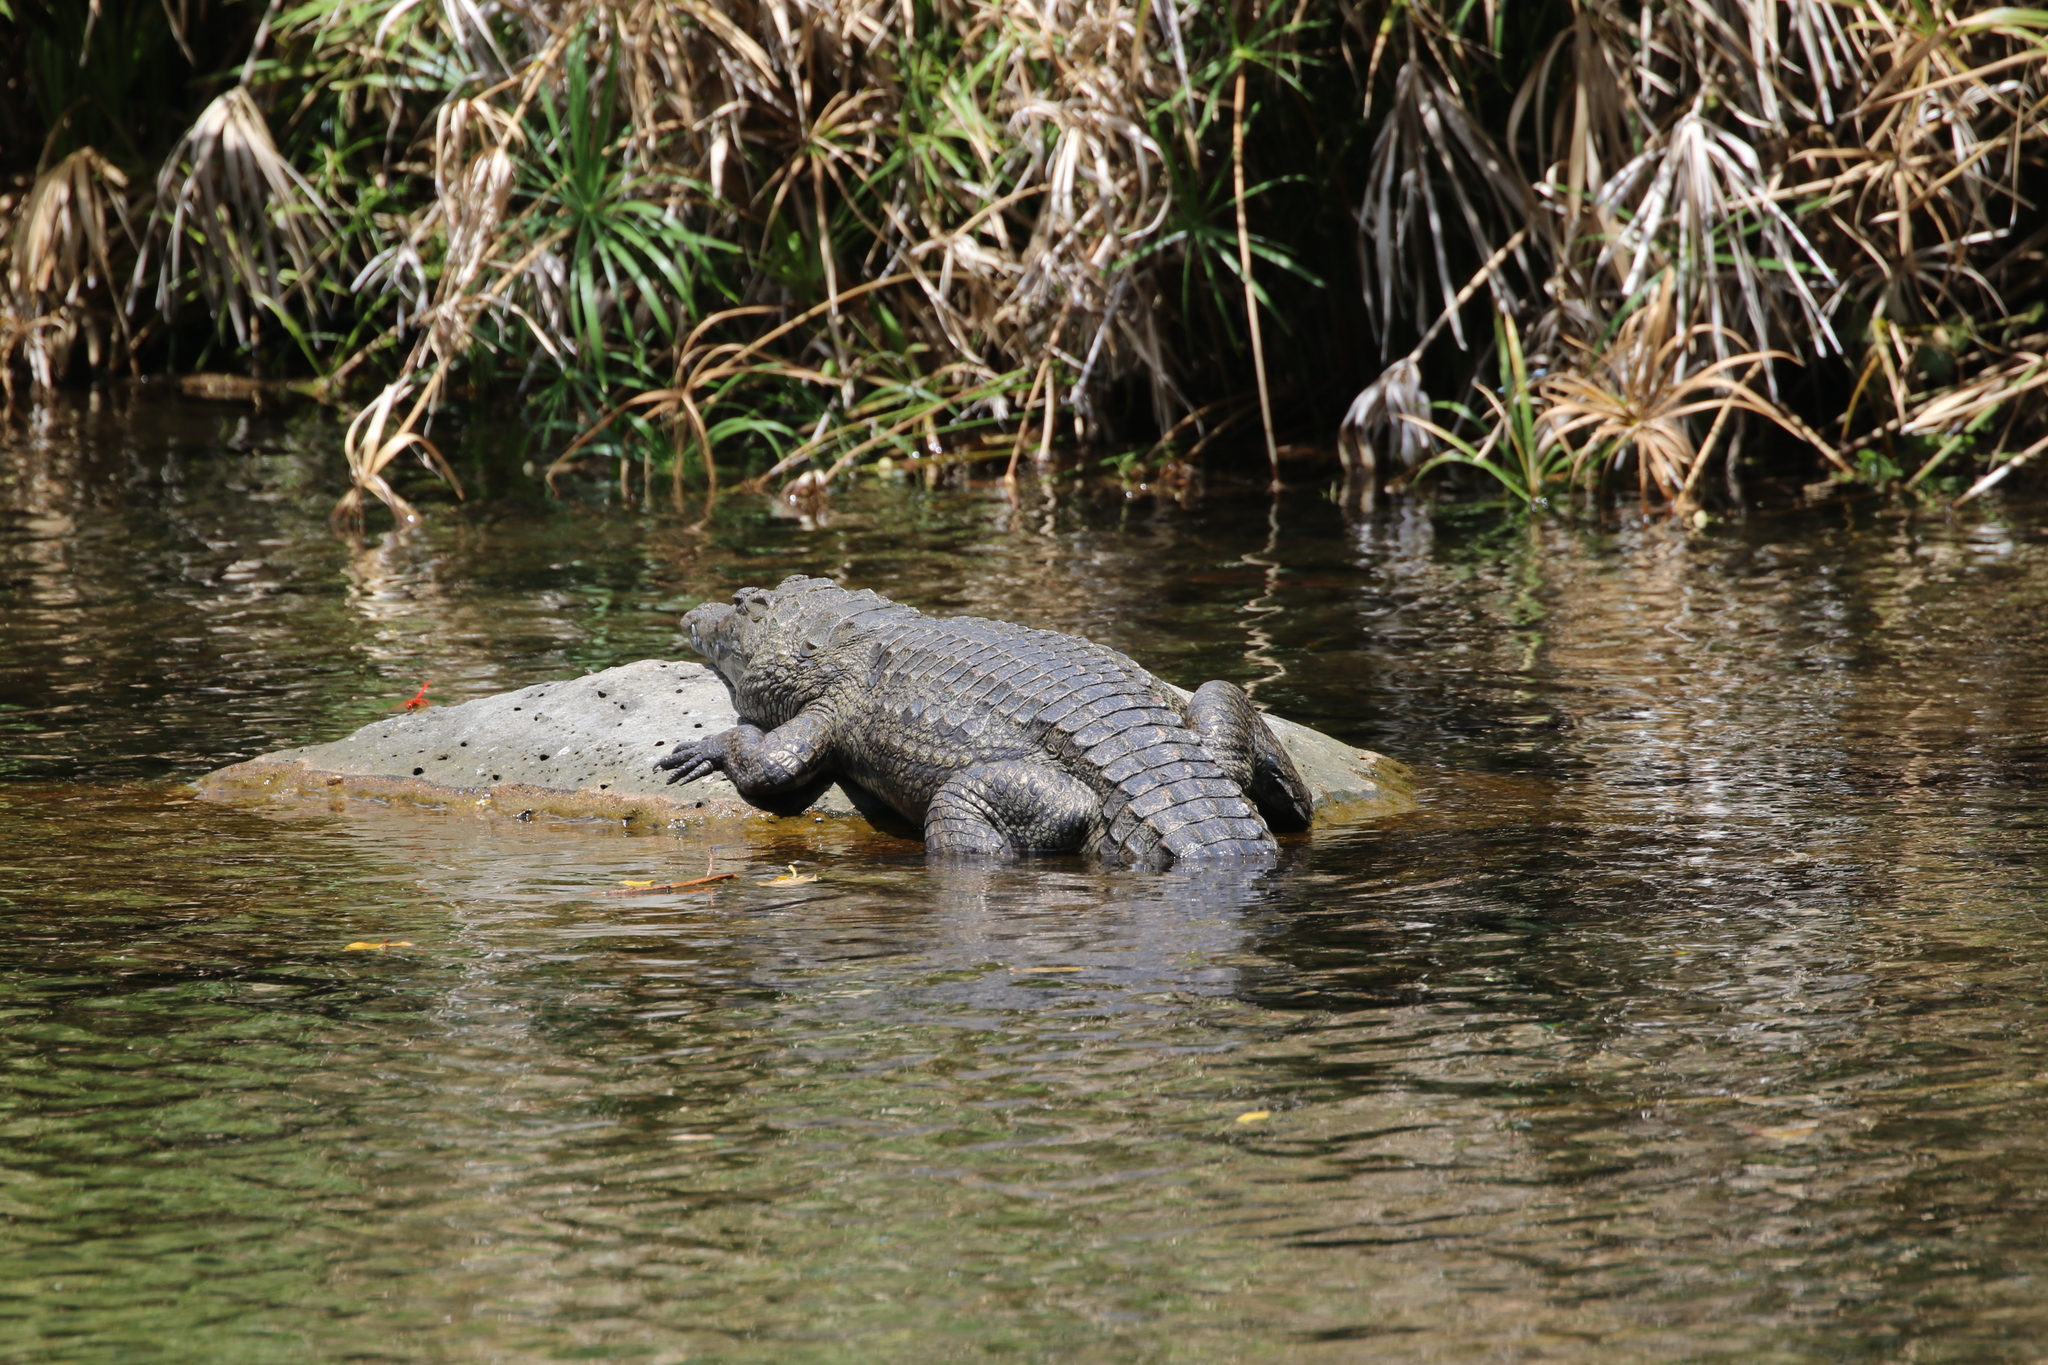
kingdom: Animalia
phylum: Chordata
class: Crocodylia
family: Crocodylidae
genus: Crocodylus
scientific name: Crocodylus niloticus
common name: Nile crocodile
